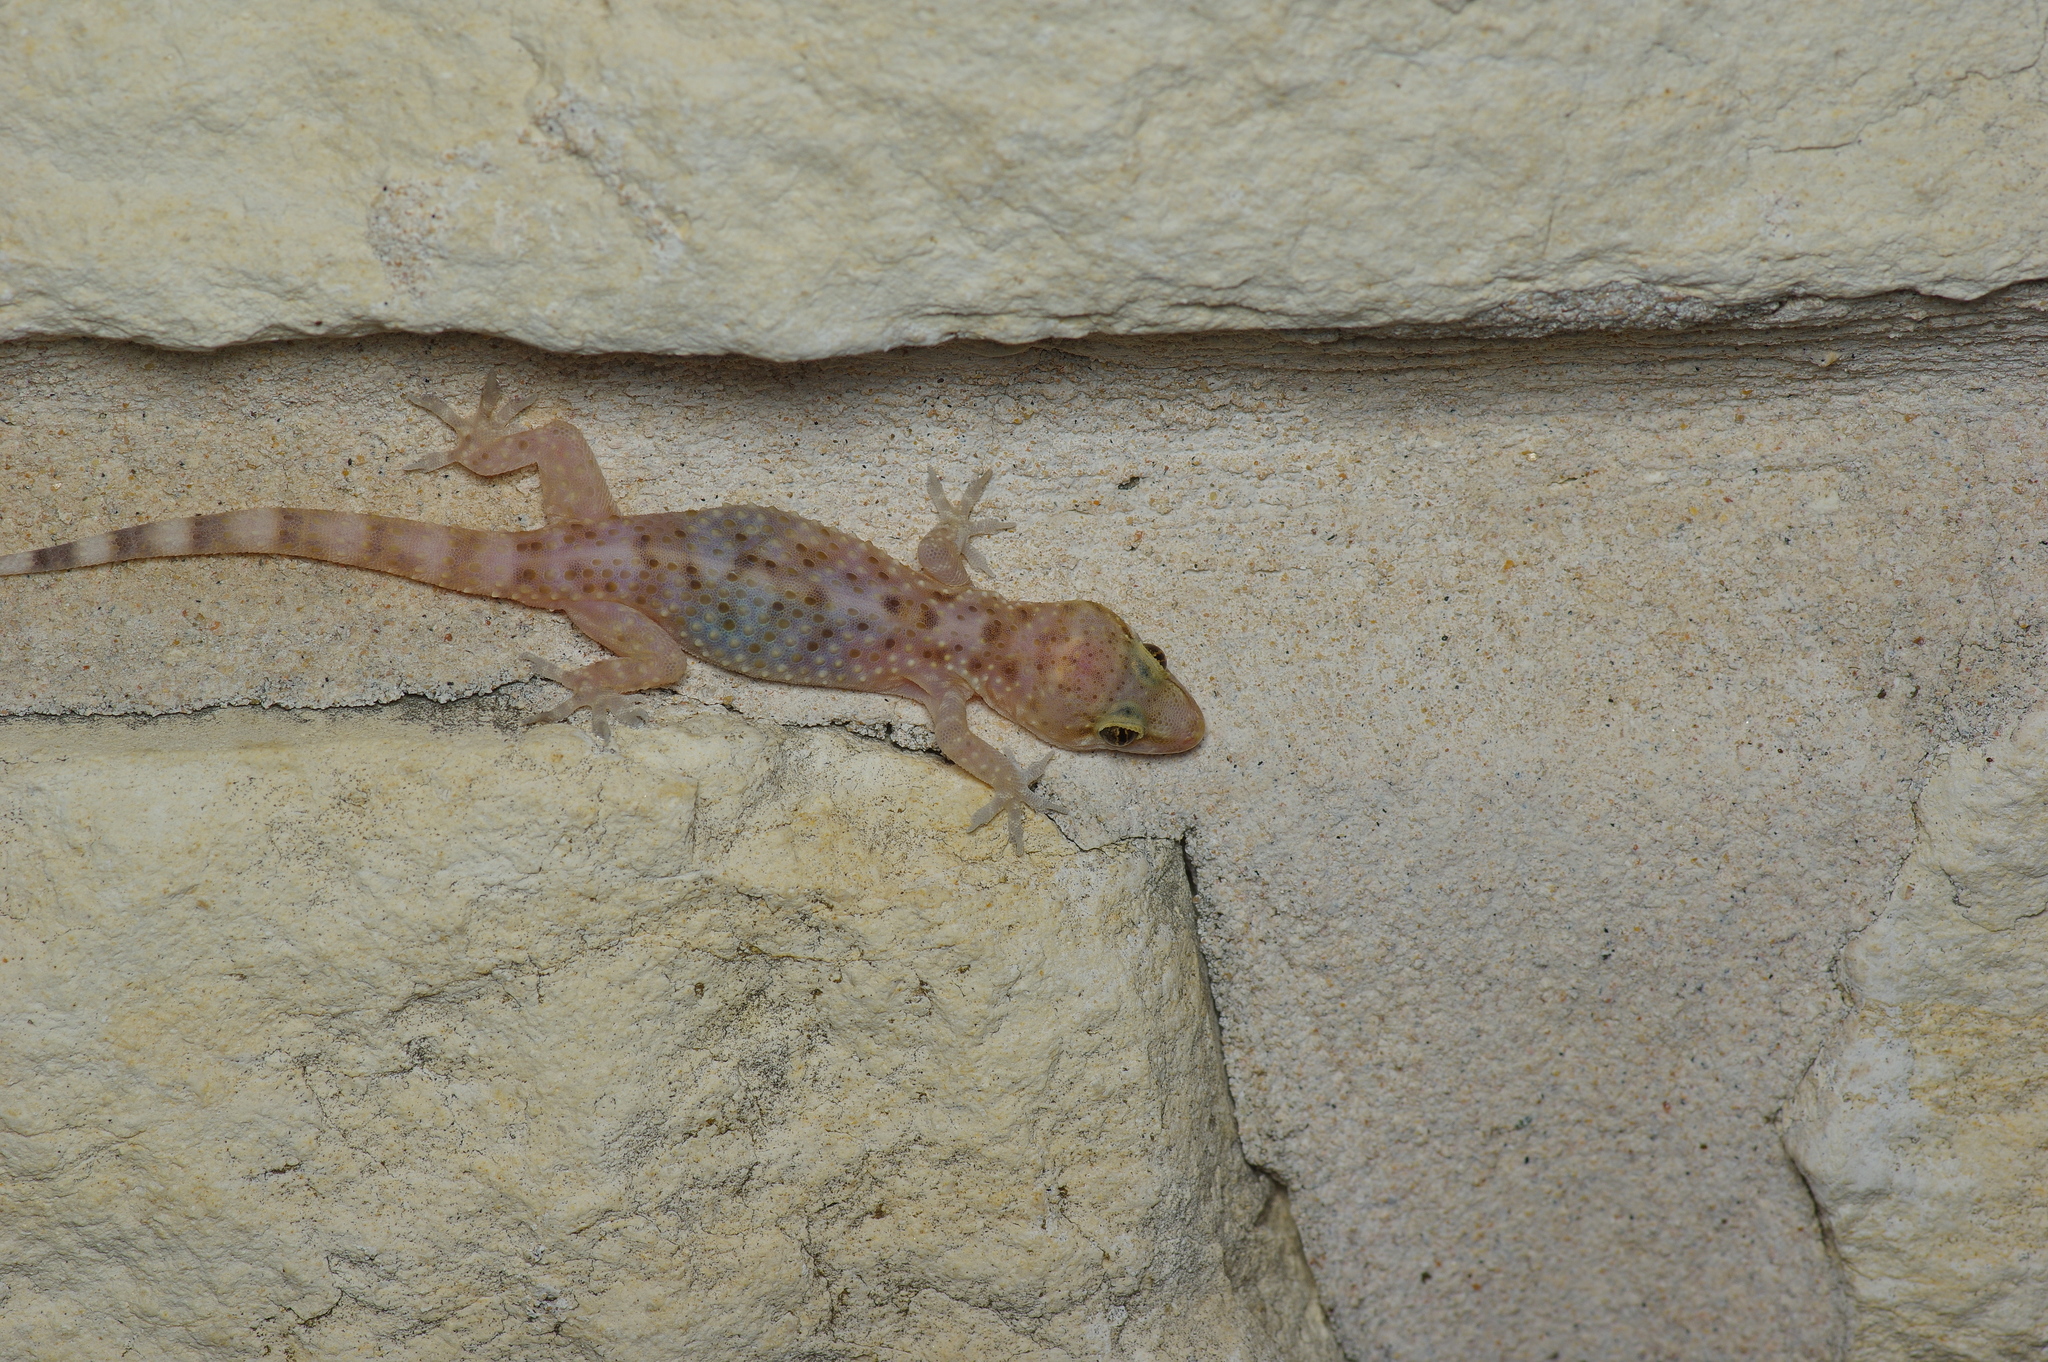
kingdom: Animalia
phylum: Chordata
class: Squamata
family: Gekkonidae
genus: Hemidactylus
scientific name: Hemidactylus turcicus
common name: Turkish gecko
